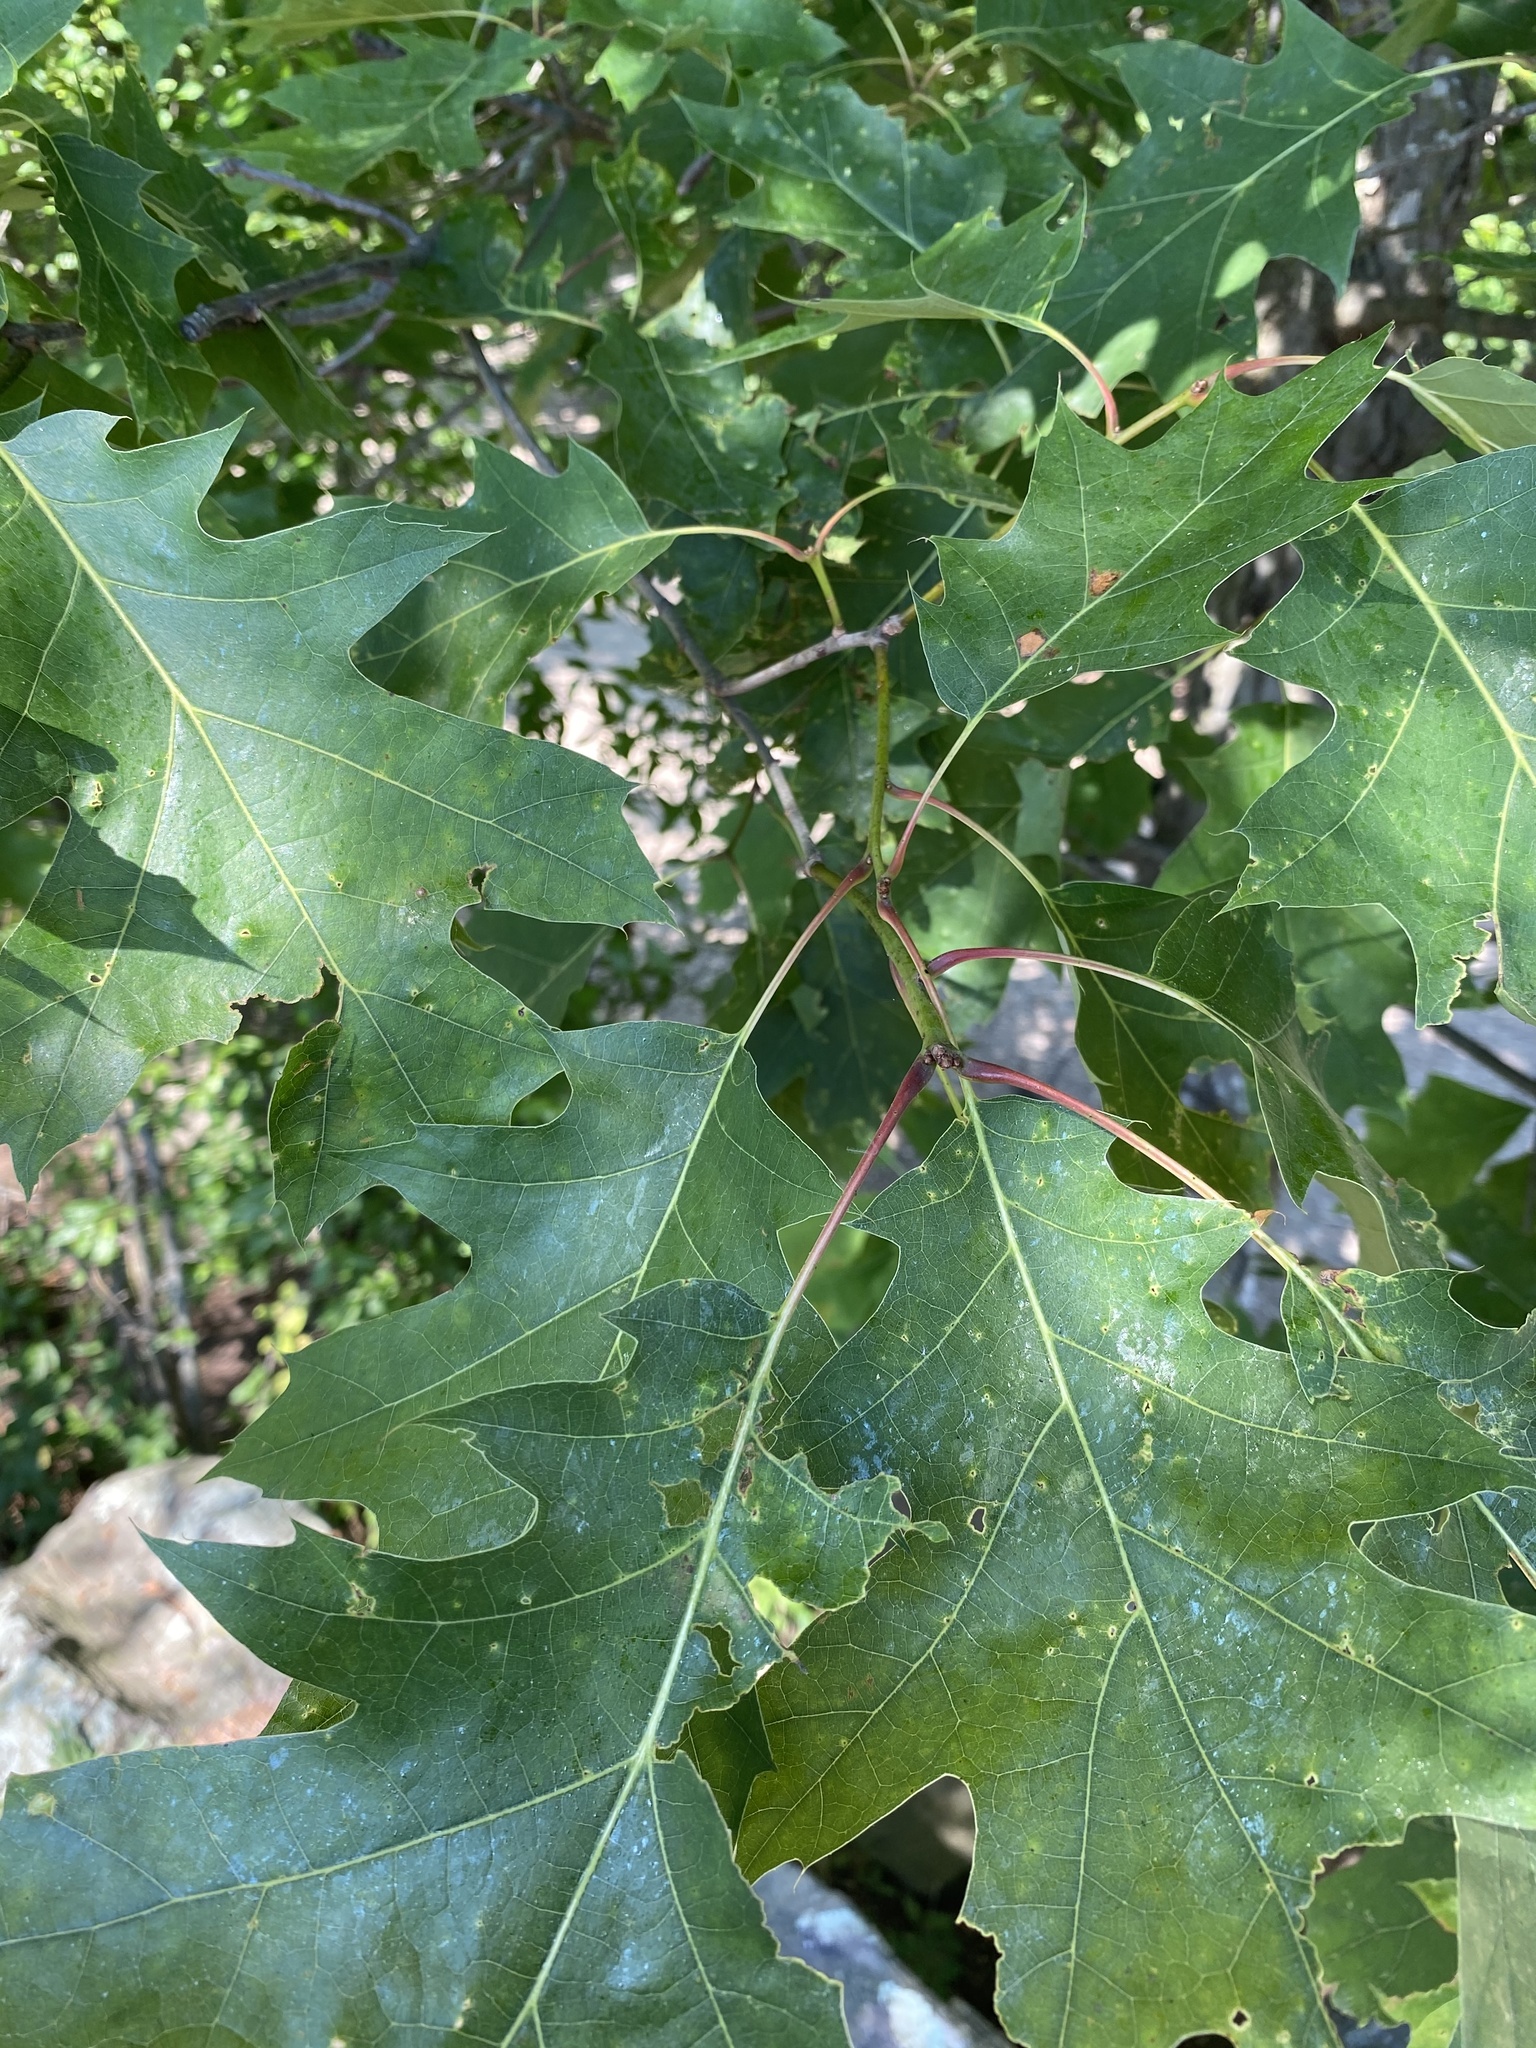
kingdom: Plantae
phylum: Tracheophyta
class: Magnoliopsida
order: Fagales
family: Fagaceae
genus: Quercus
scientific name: Quercus rubra
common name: Red oak
